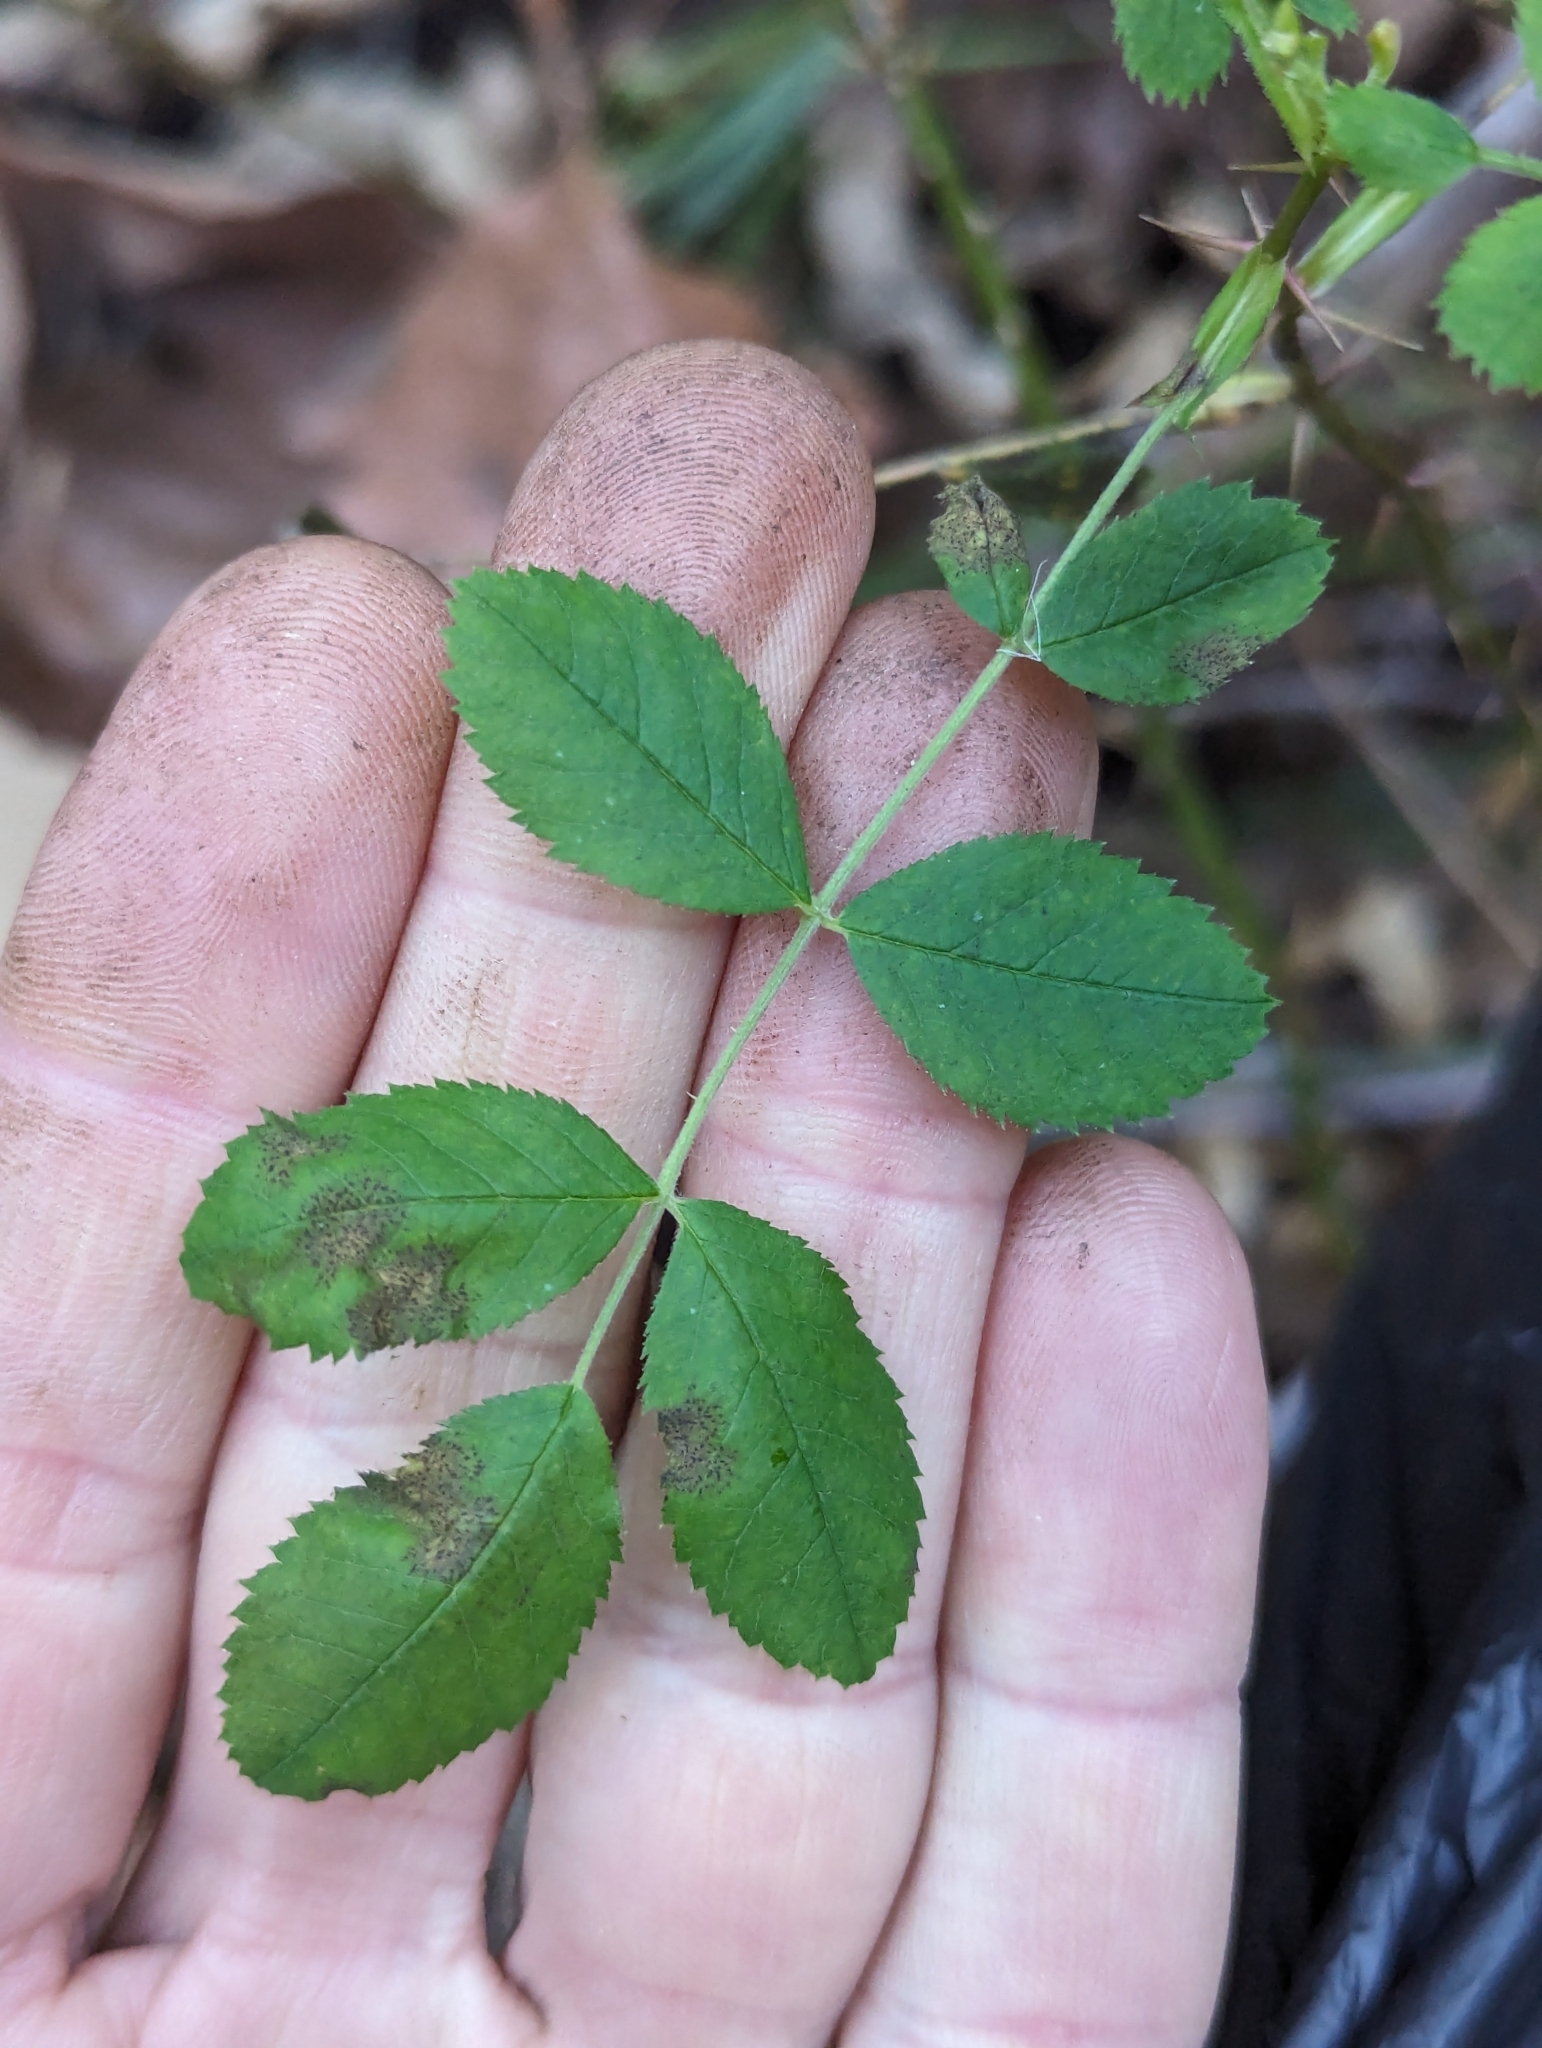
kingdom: Plantae
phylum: Tracheophyta
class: Magnoliopsida
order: Rosales
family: Rosaceae
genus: Rosa
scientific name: Rosa californica
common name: California rose
